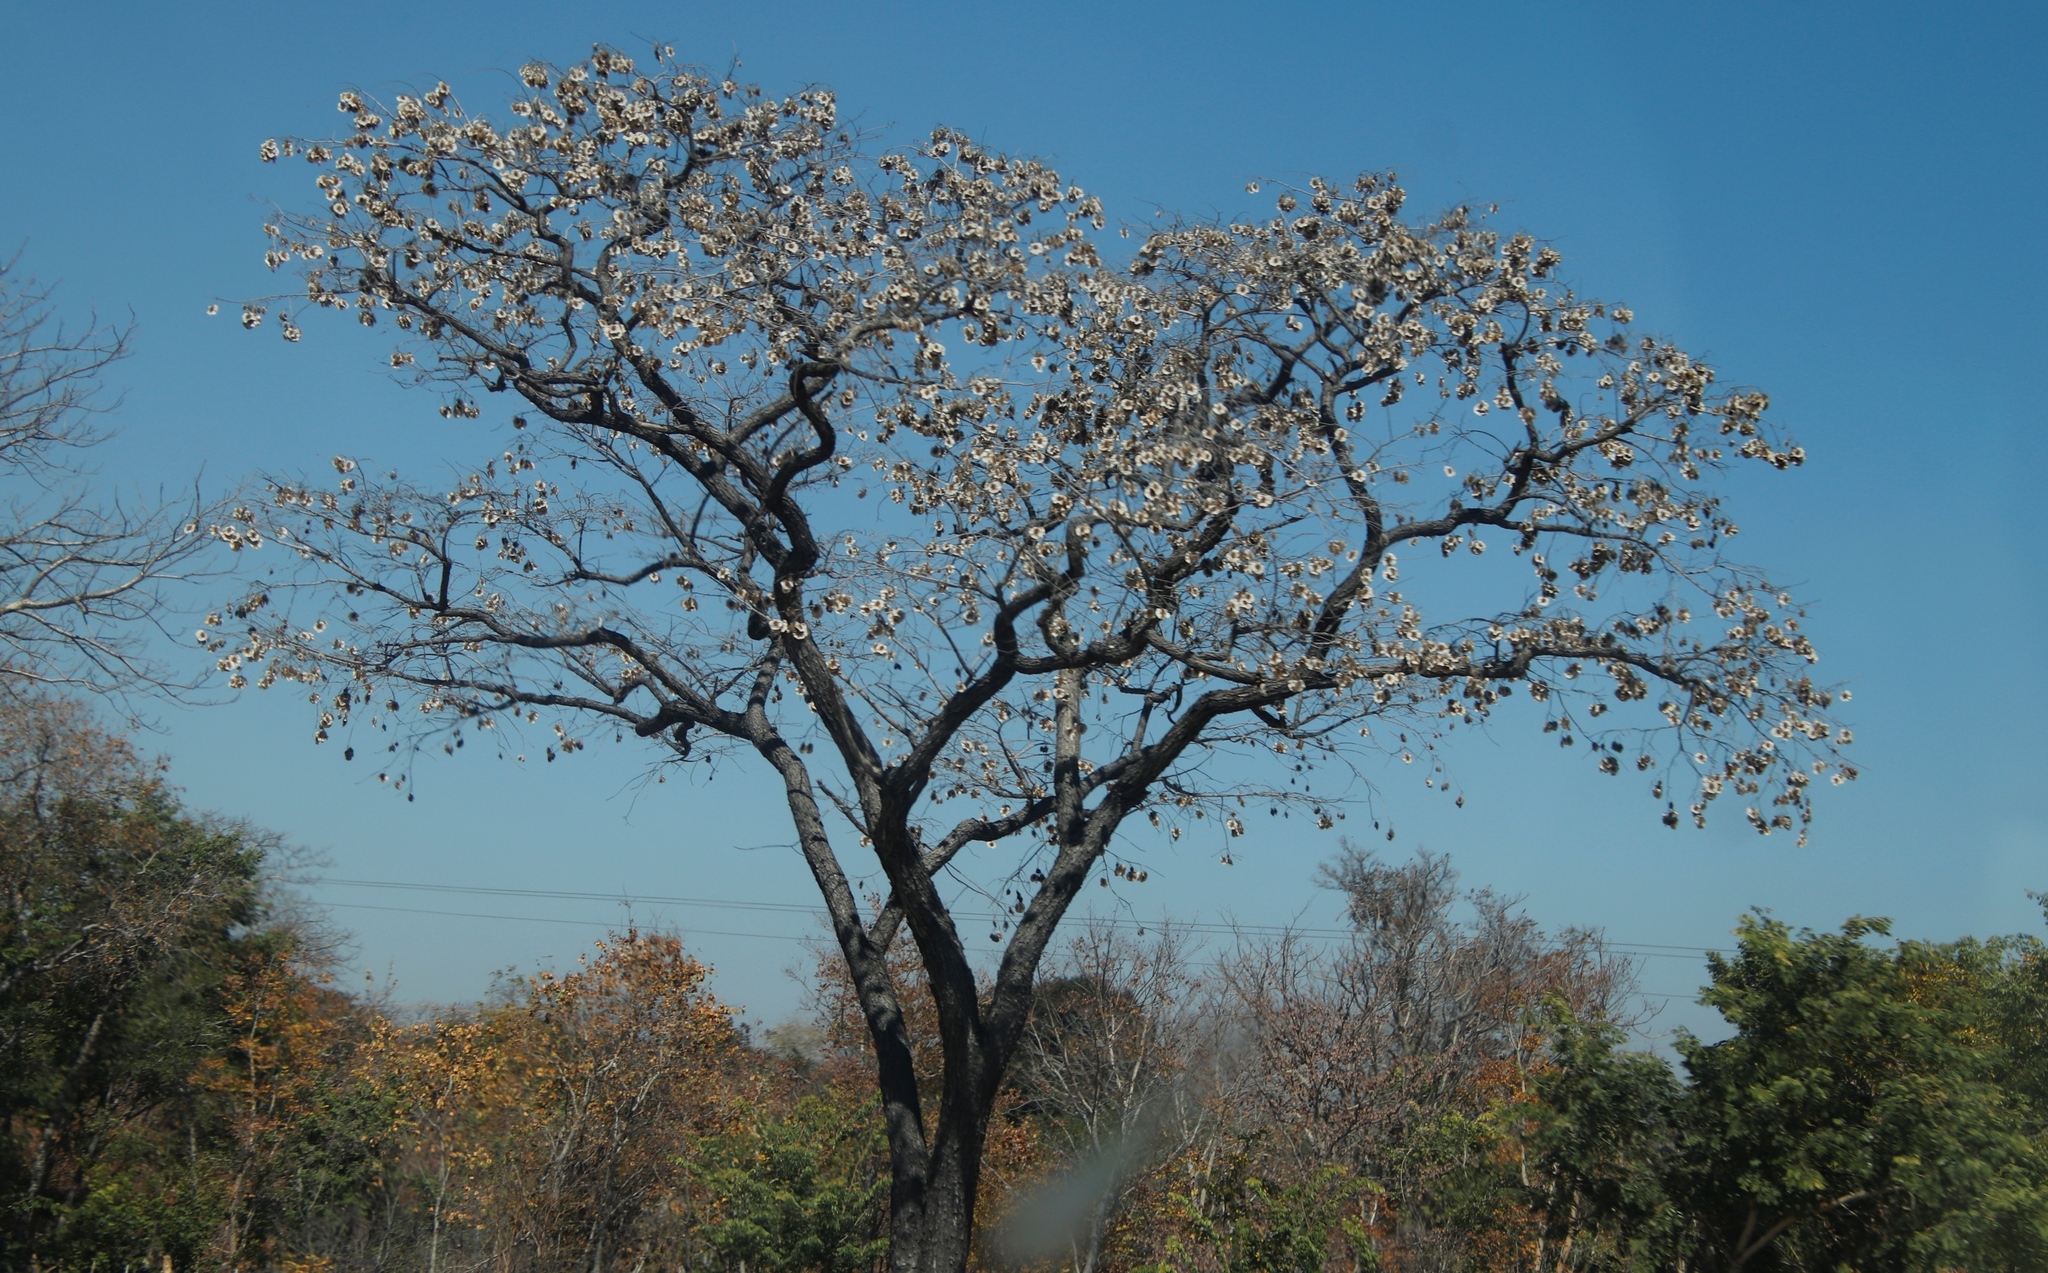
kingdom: Plantae
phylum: Tracheophyta
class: Magnoliopsida
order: Fabales
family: Fabaceae
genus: Pterocarpus
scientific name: Pterocarpus angolensis
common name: Bloodwood tree
